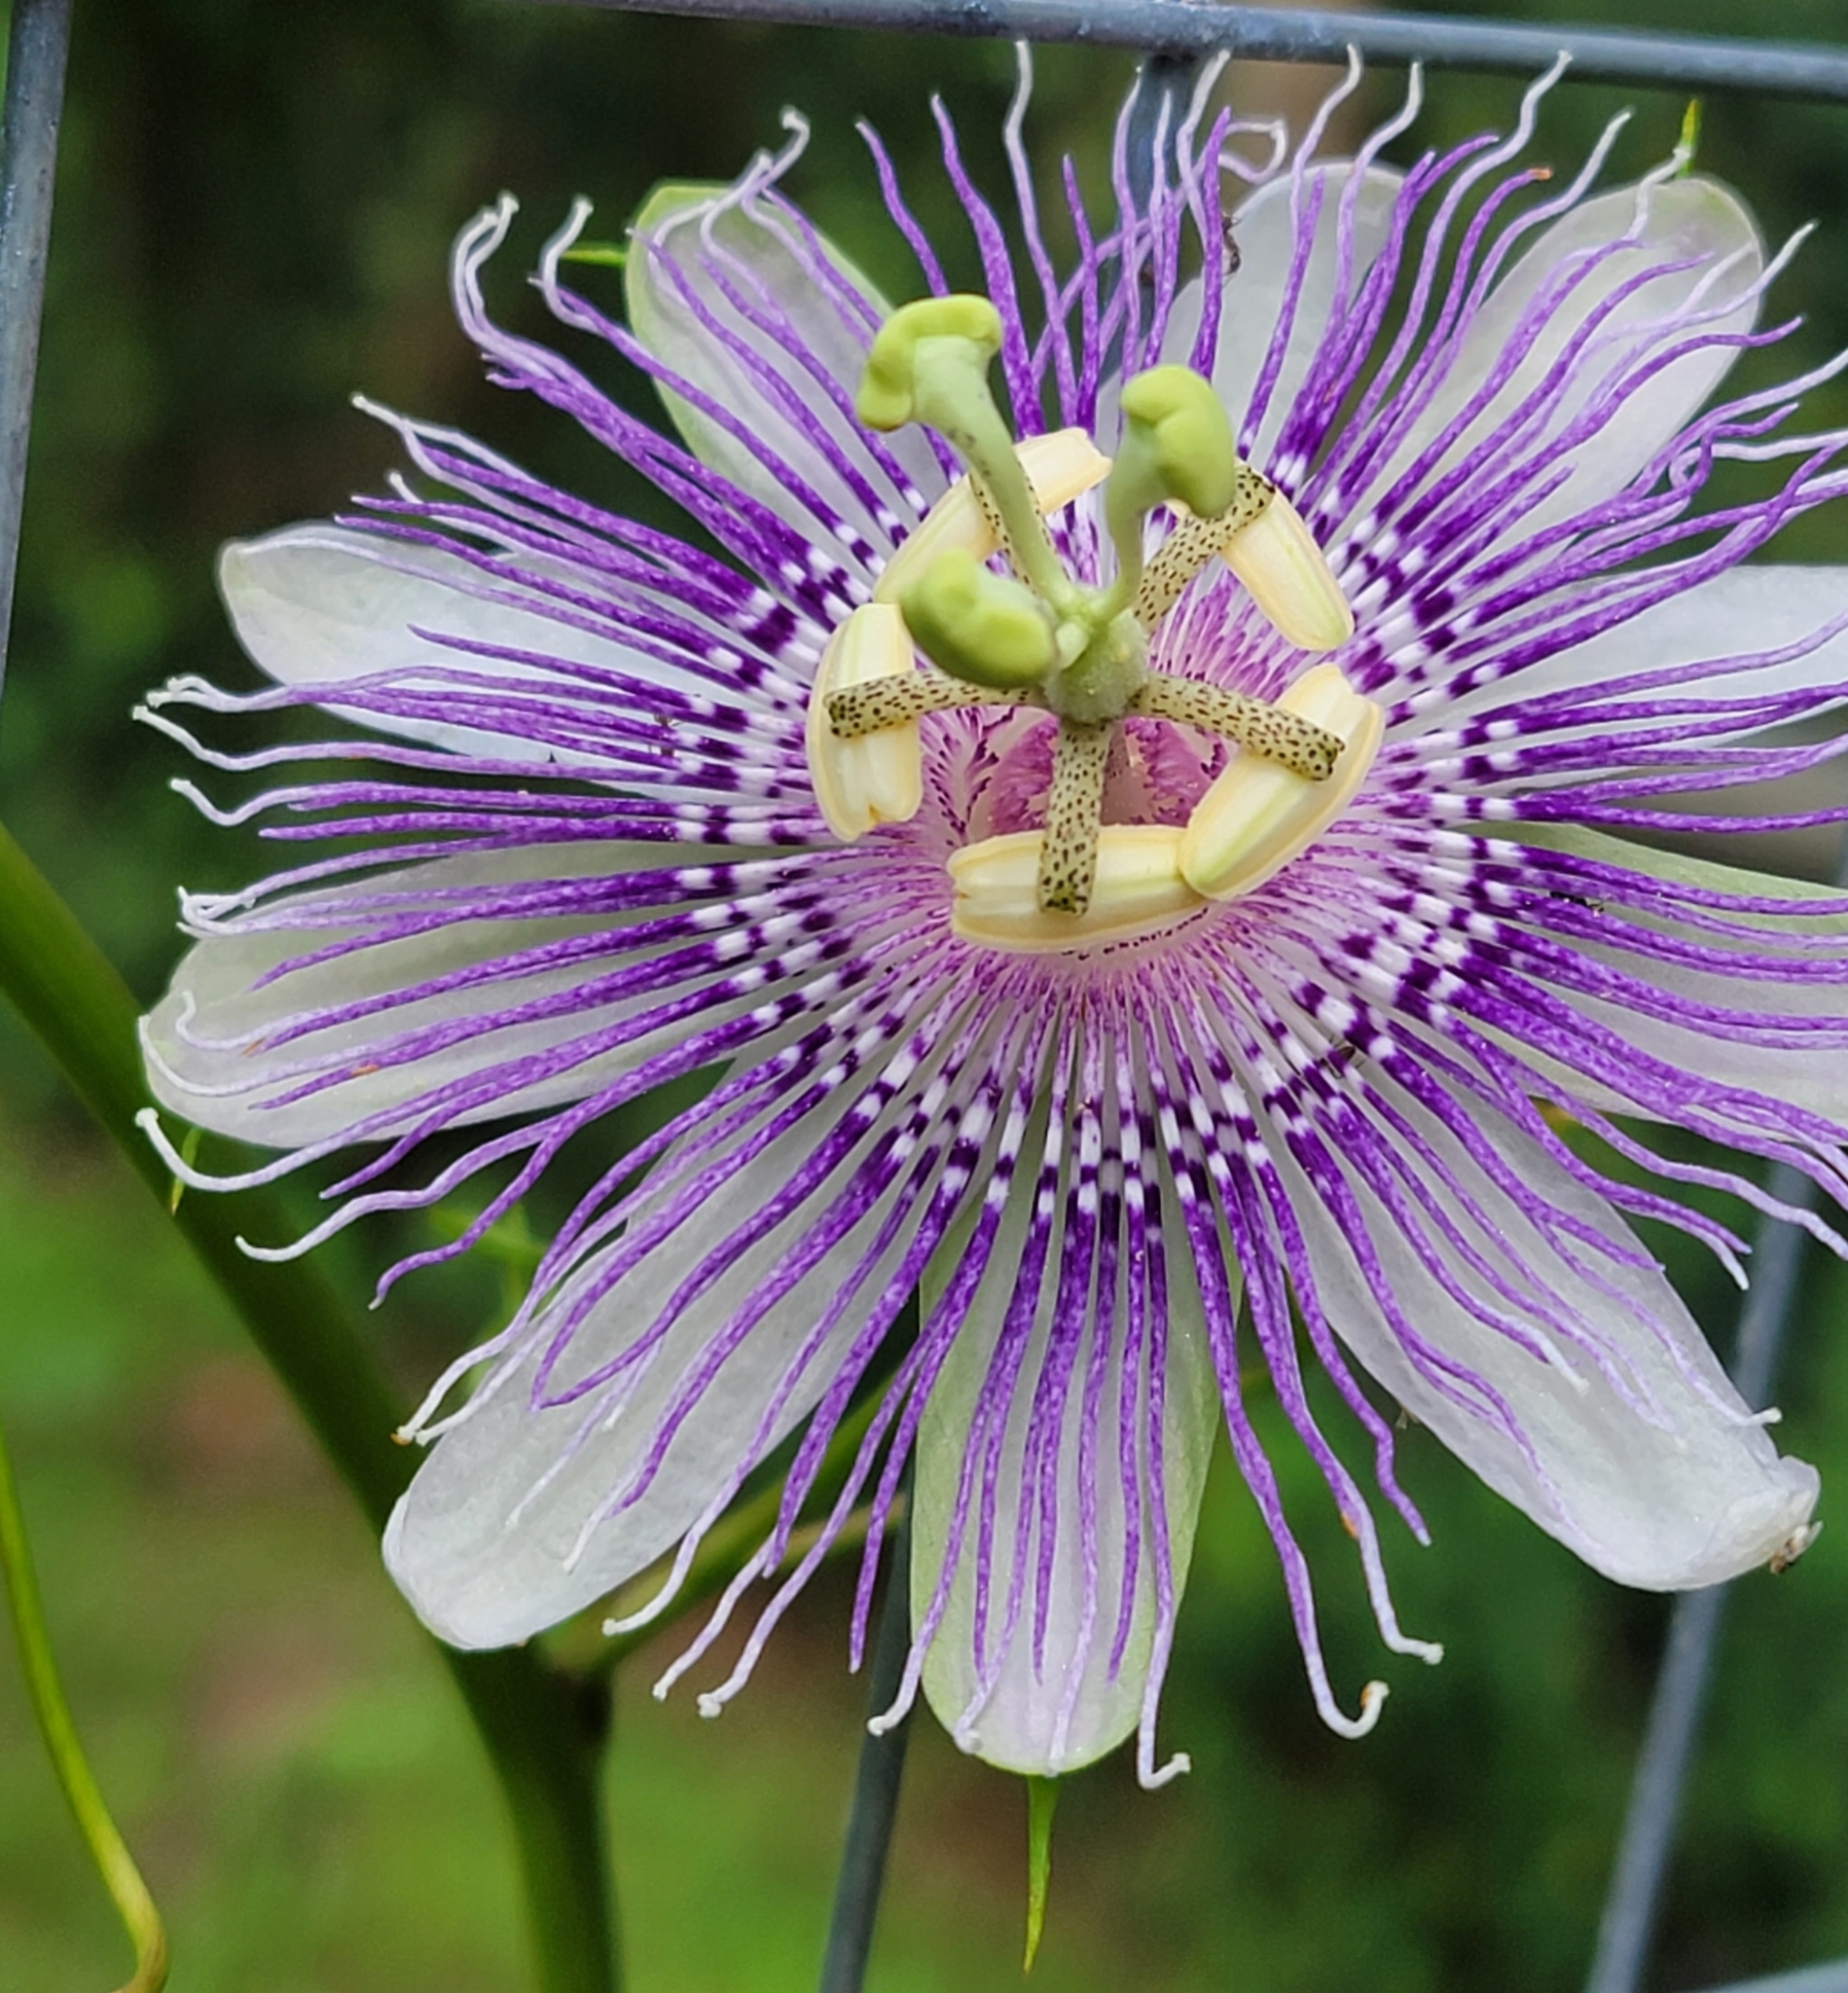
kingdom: Plantae
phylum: Tracheophyta
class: Magnoliopsida
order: Malpighiales
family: Passifloraceae
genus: Passiflora
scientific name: Passiflora incarnata
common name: Apricot-vine
